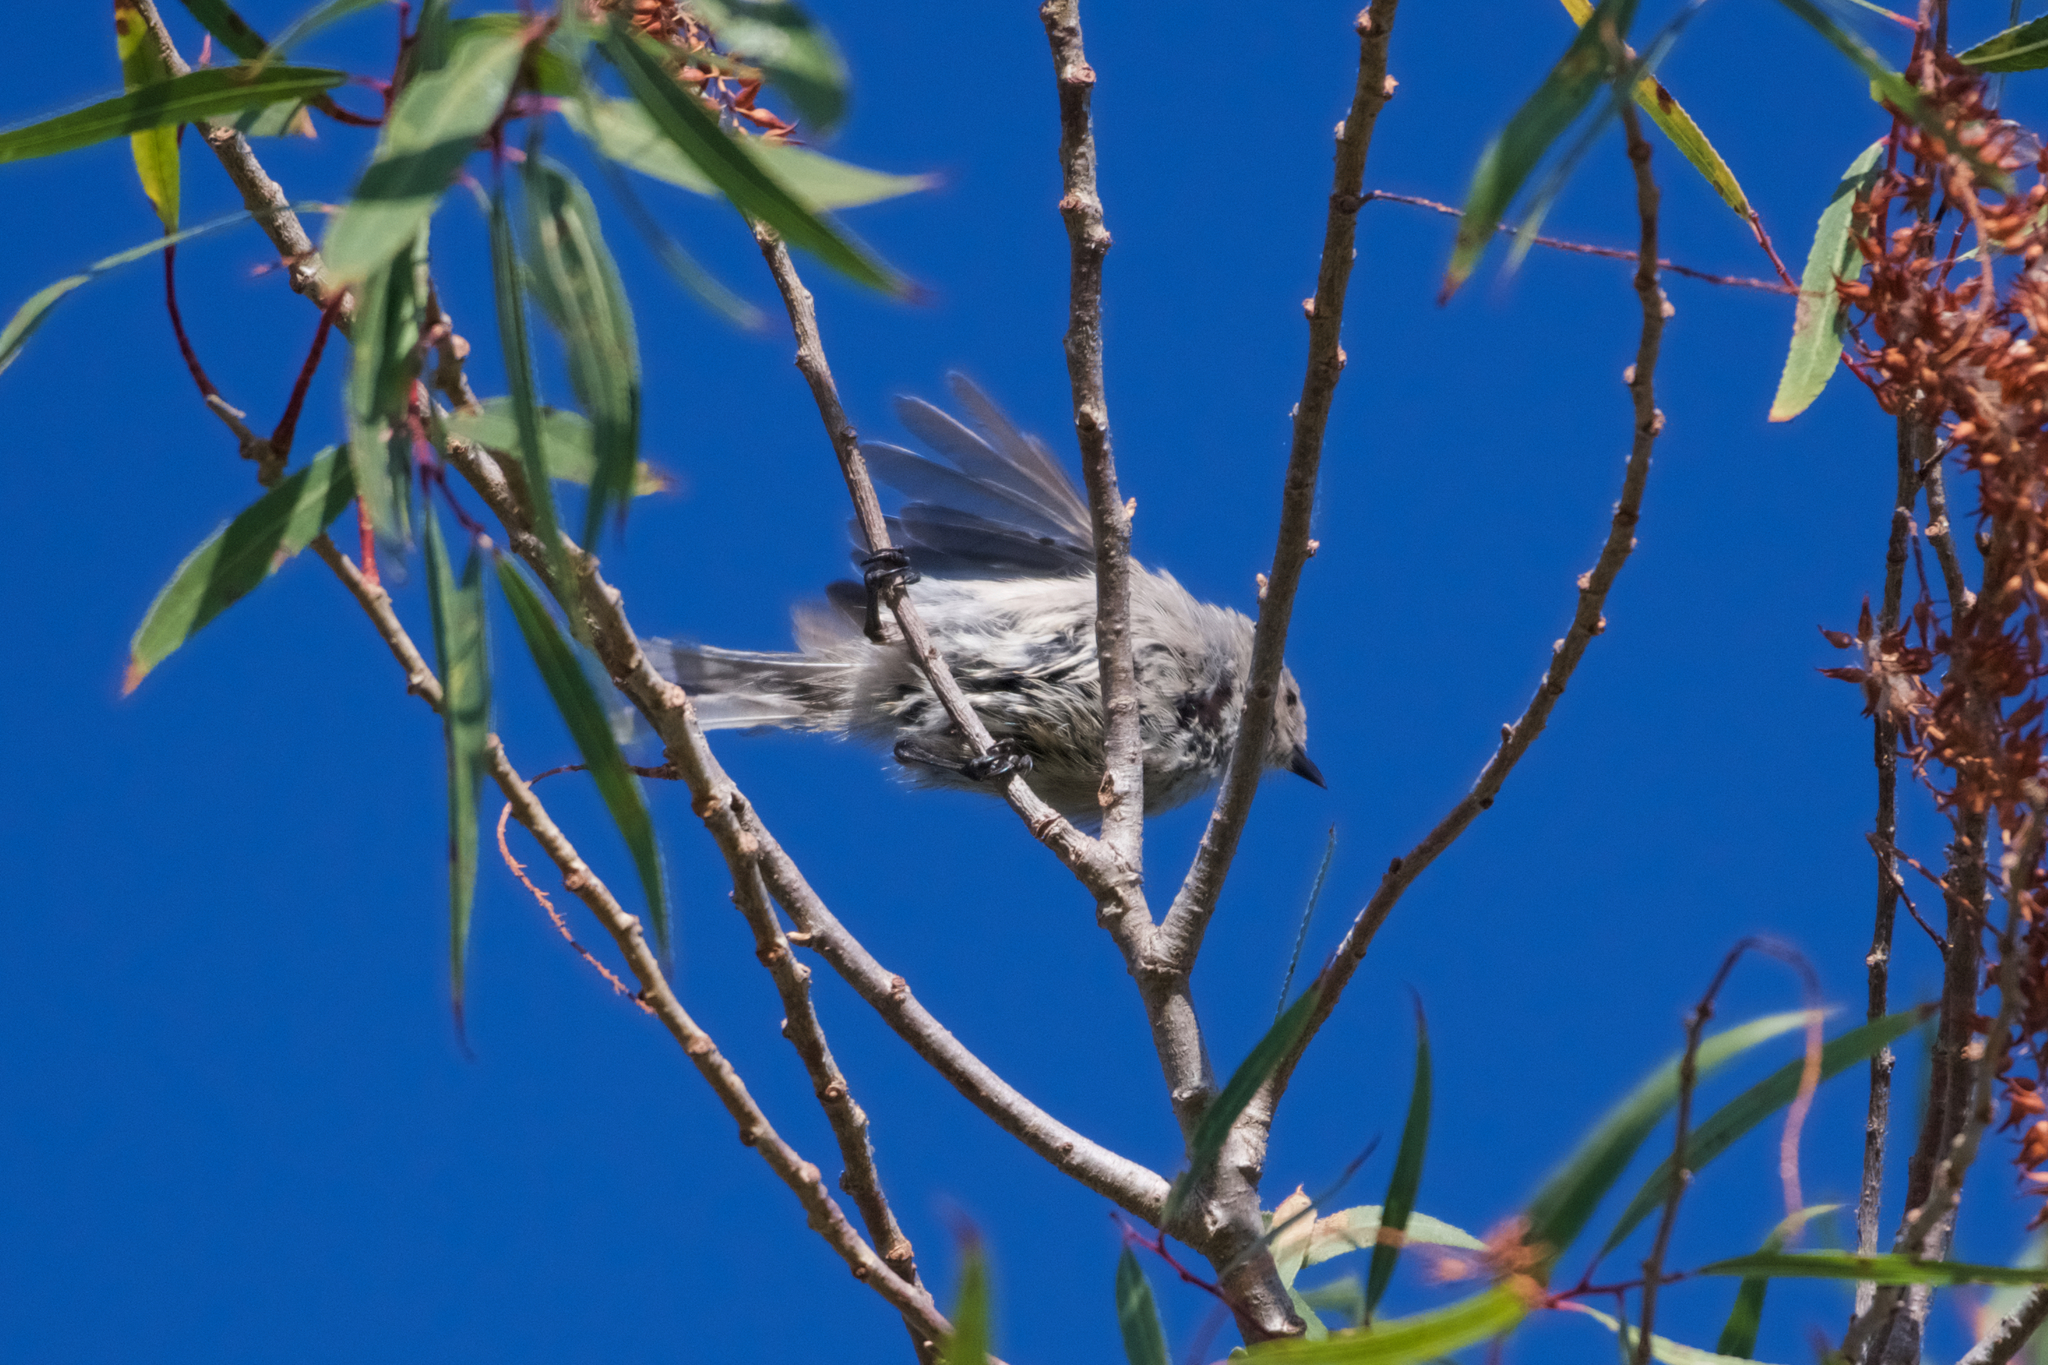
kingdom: Animalia
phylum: Chordata
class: Aves
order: Passeriformes
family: Aegithalidae
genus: Psaltriparus
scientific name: Psaltriparus minimus
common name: American bushtit
